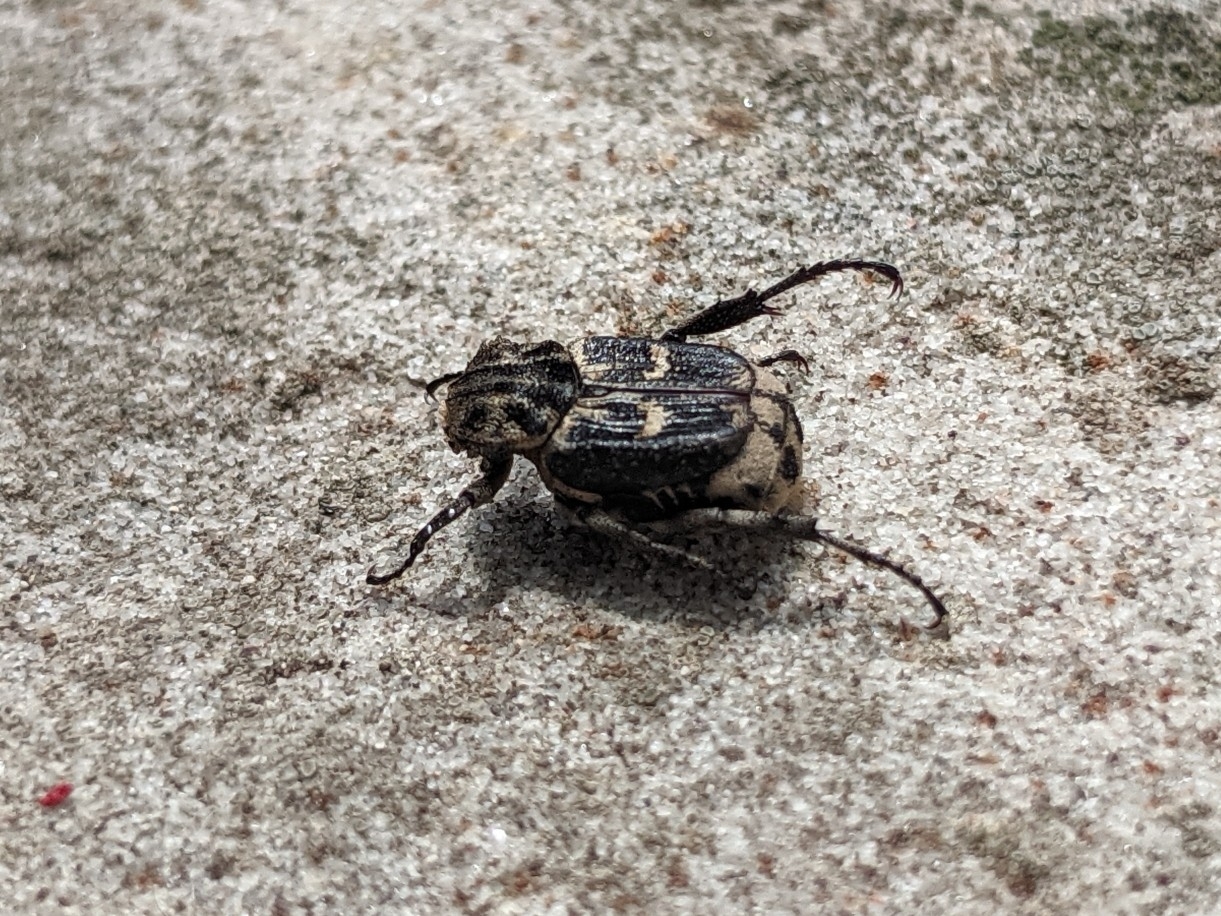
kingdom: Animalia
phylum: Arthropoda
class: Insecta
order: Coleoptera
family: Scarabaeidae
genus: Valgus
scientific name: Valgus hemipterus
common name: Bug flower chafer
